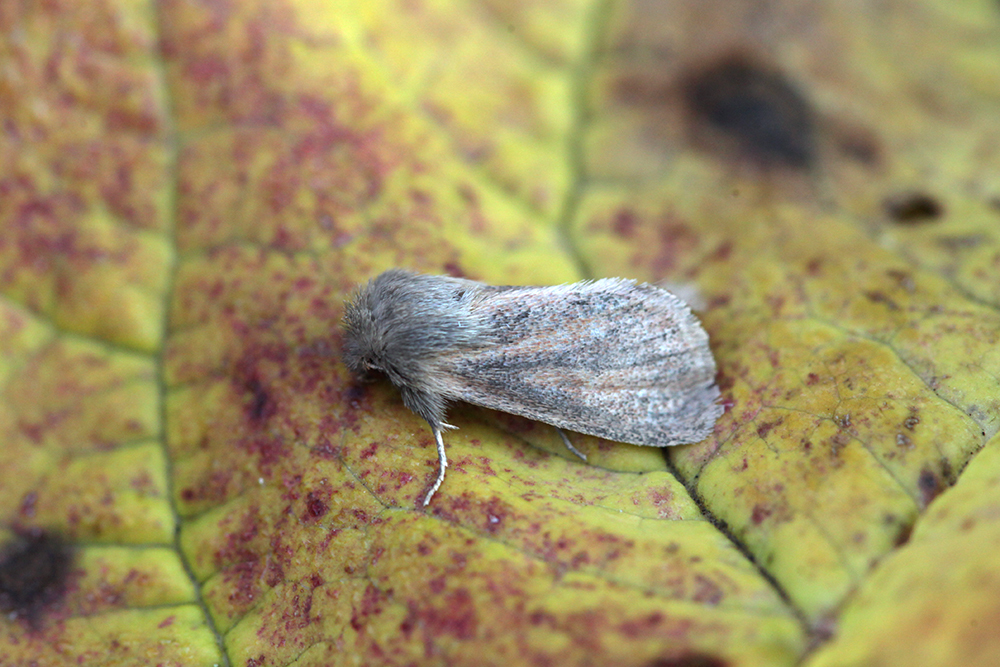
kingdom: Animalia
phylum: Arthropoda
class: Insecta
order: Lepidoptera
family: Noctuidae
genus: Denticucullus
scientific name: Denticucullus pygmina
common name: Small wainscot
